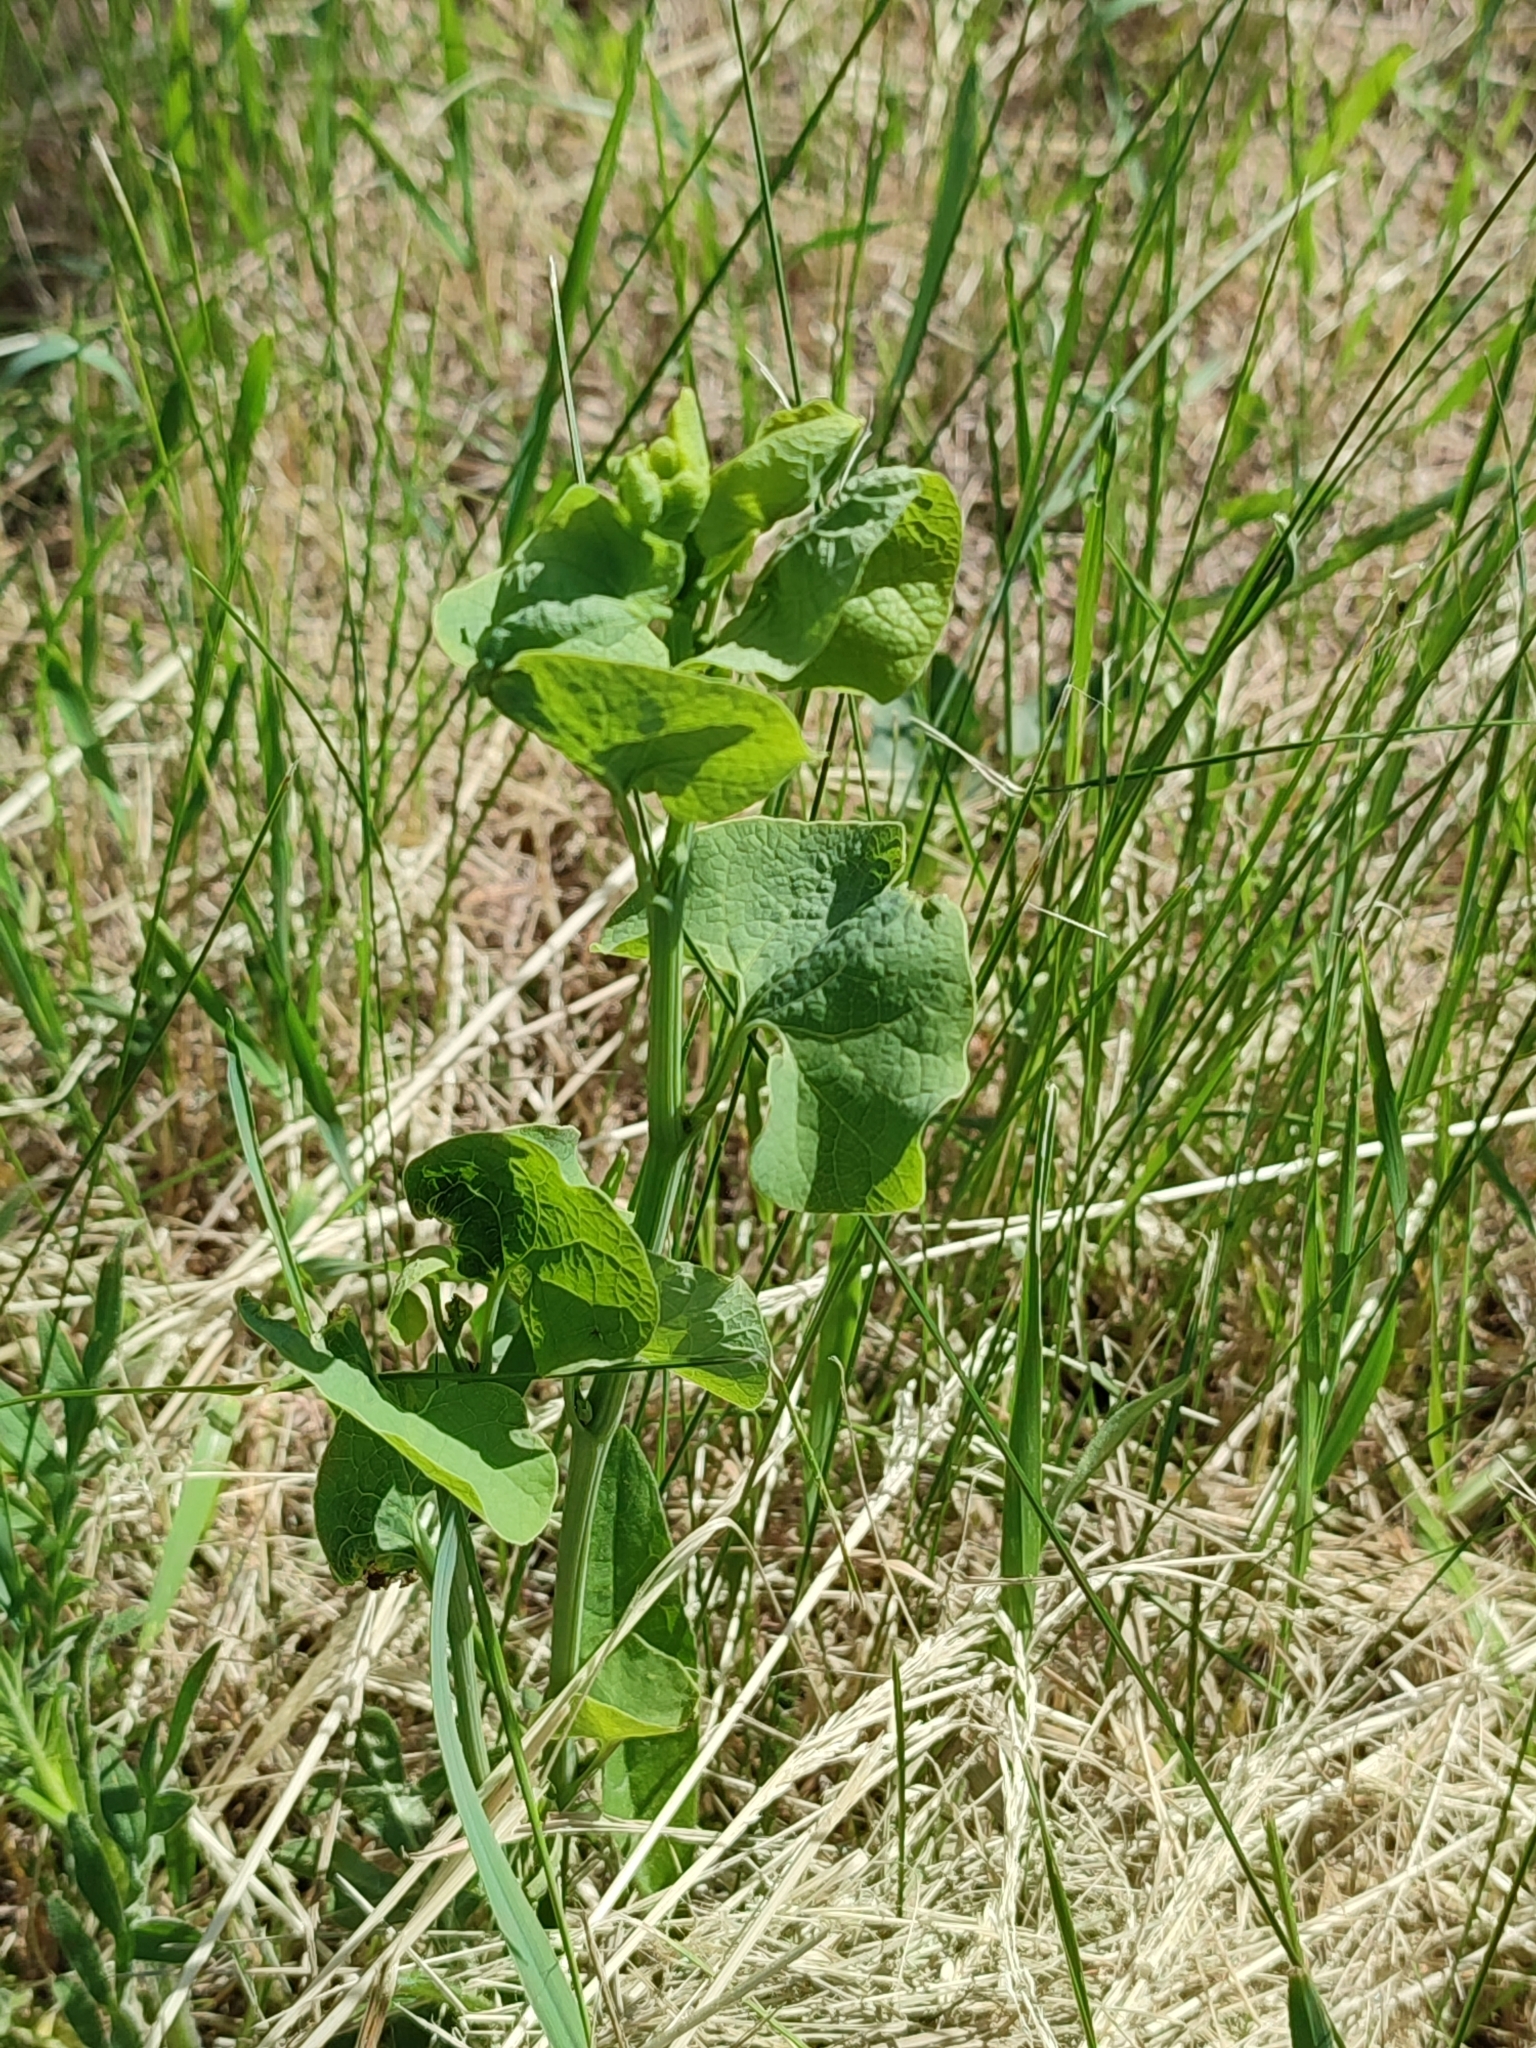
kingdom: Plantae
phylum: Tracheophyta
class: Magnoliopsida
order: Piperales
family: Aristolochiaceae
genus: Aristolochia
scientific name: Aristolochia clematitis
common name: Birthwort
